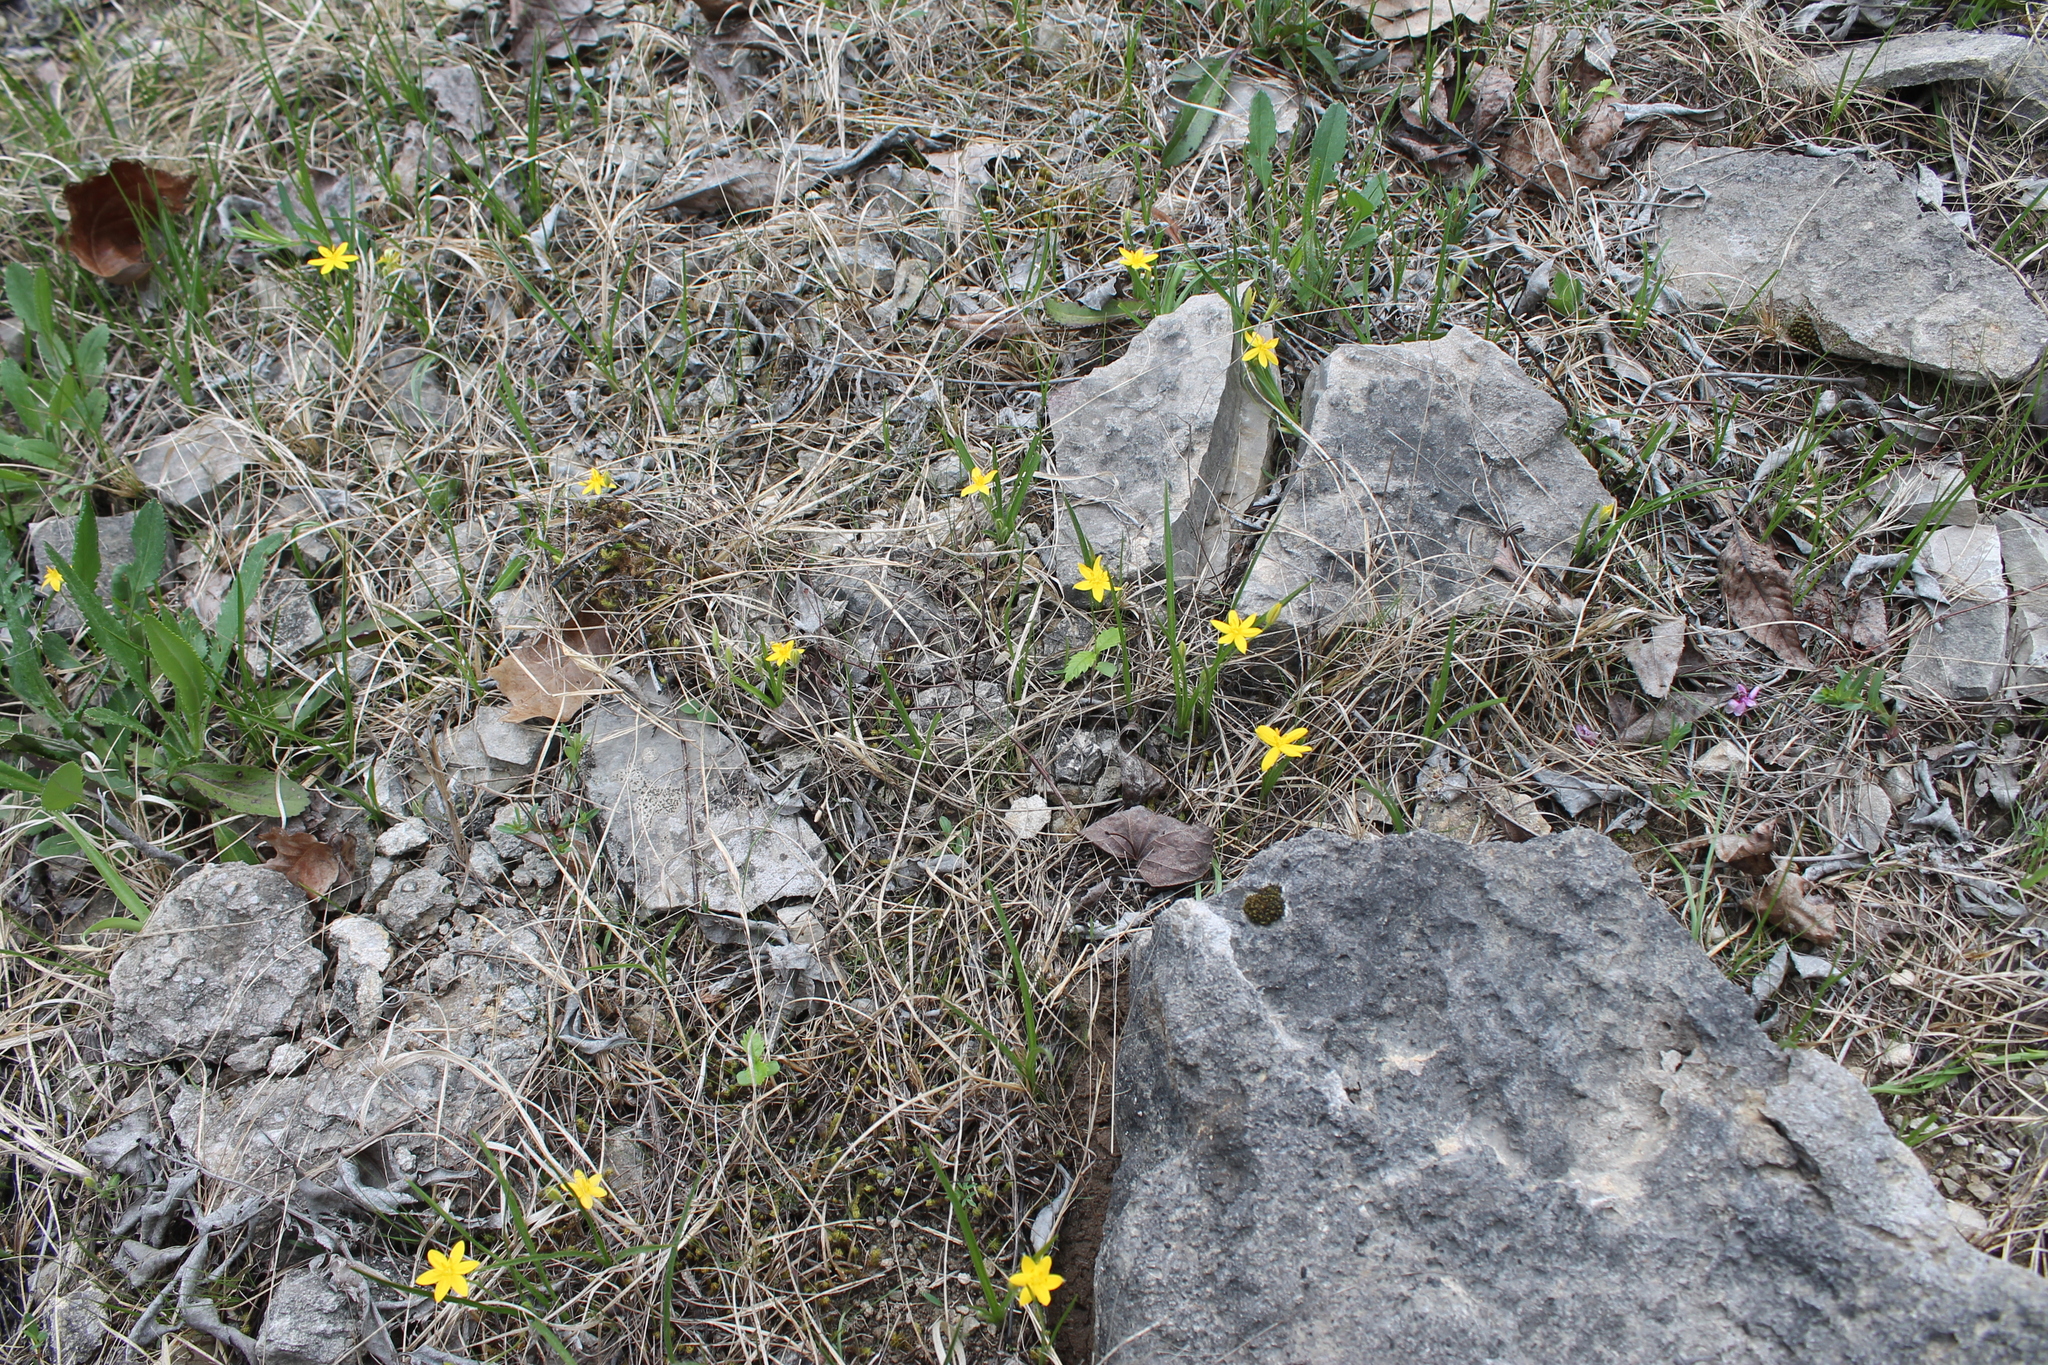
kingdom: Plantae
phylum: Tracheophyta
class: Liliopsida
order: Asparagales
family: Hypoxidaceae
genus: Hypoxis
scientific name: Hypoxis hirsuta
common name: Common goldstar
